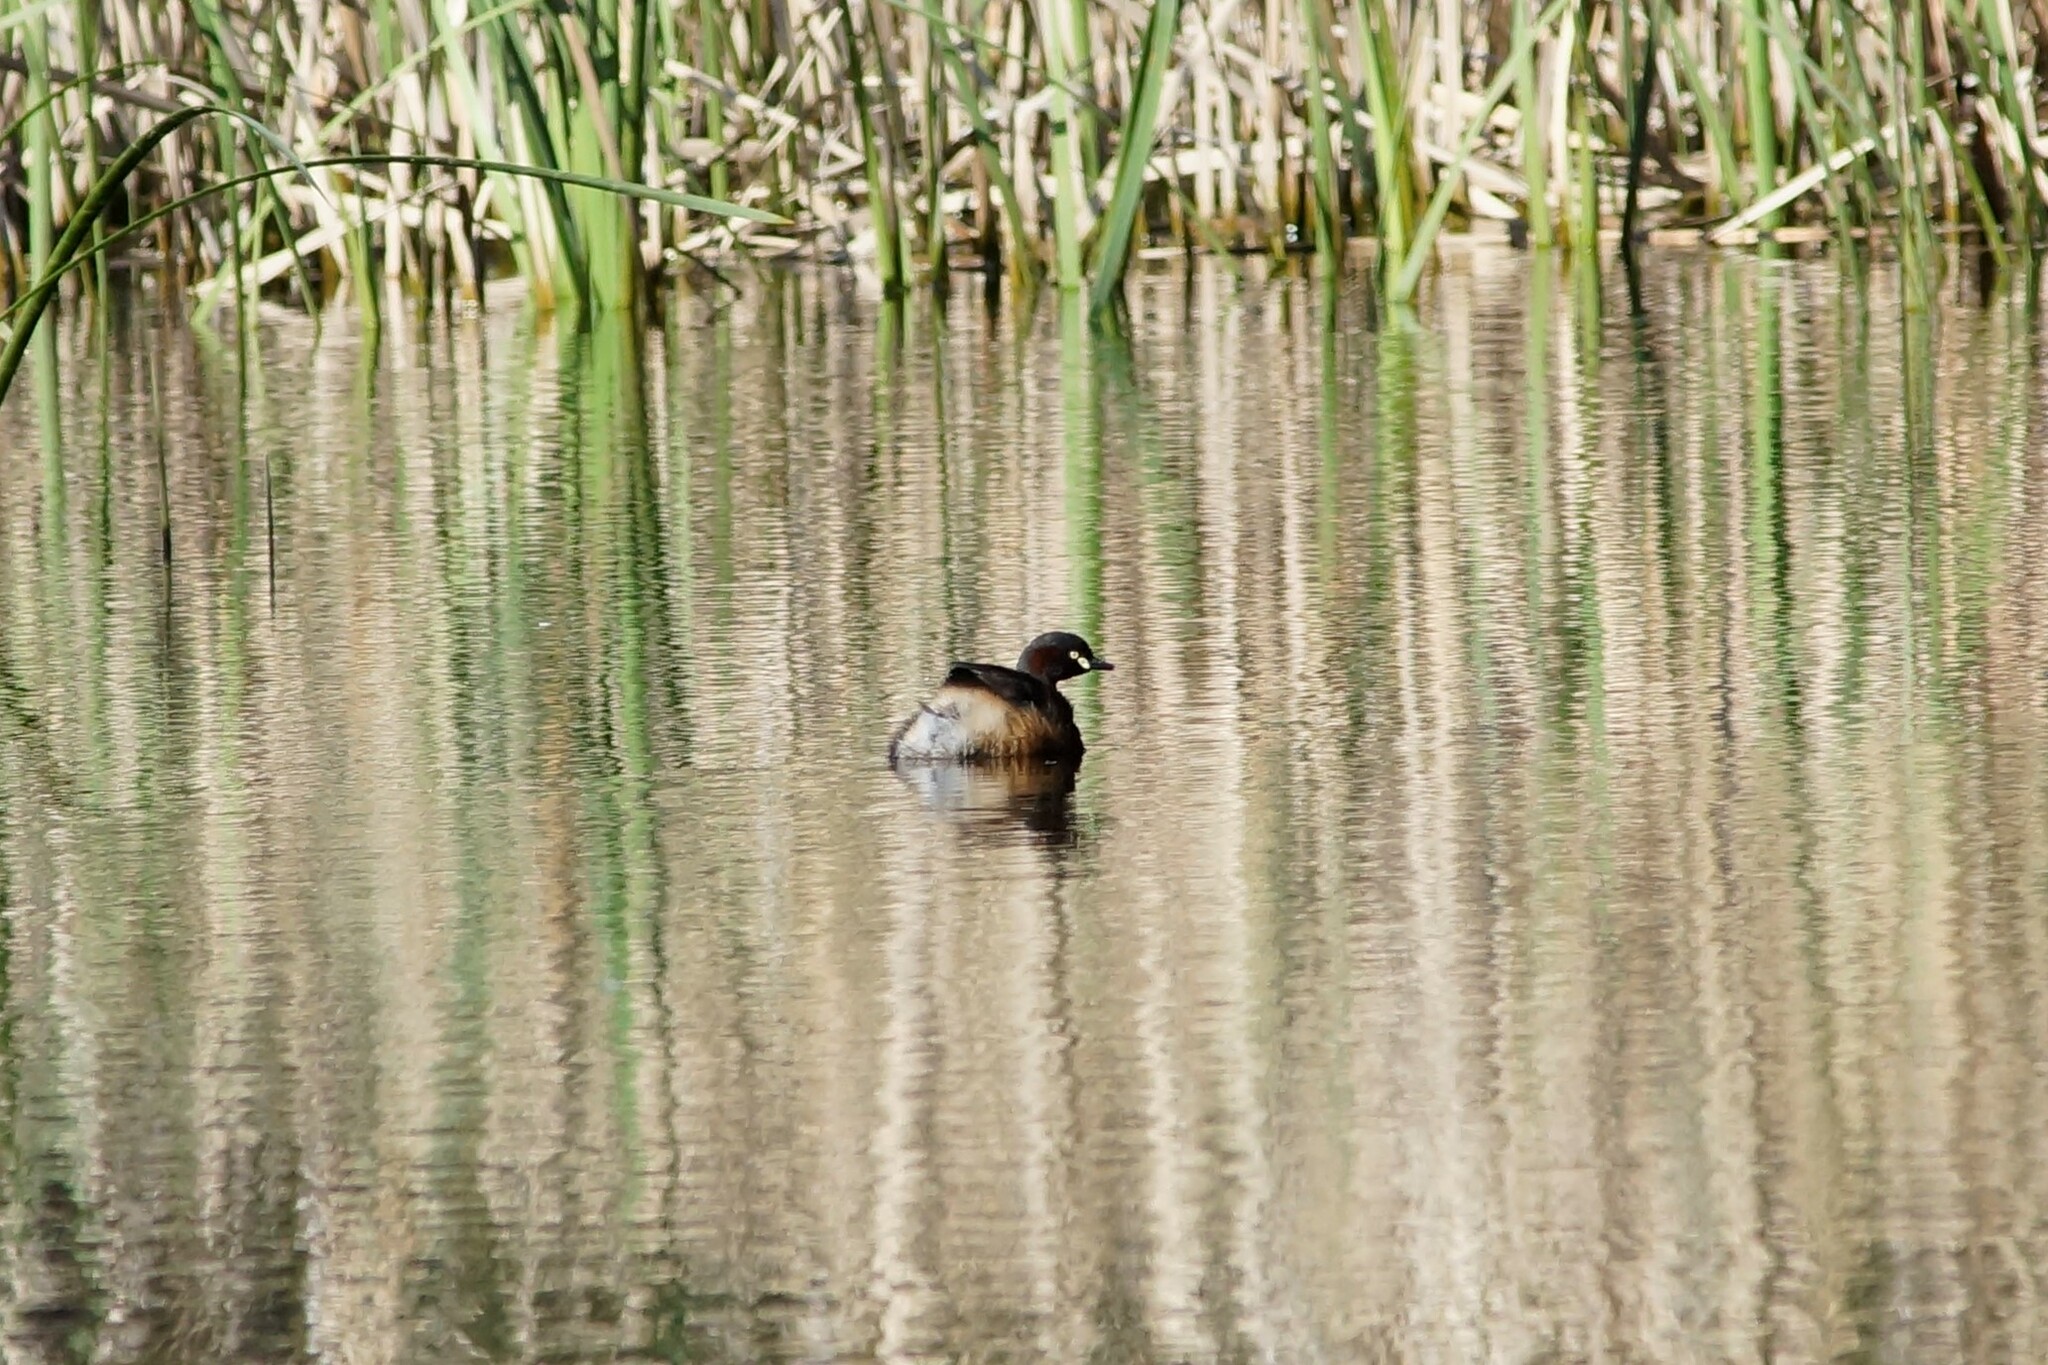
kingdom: Animalia
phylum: Chordata
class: Aves
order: Podicipediformes
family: Podicipedidae
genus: Tachybaptus
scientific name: Tachybaptus novaehollandiae
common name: Australasian grebe
